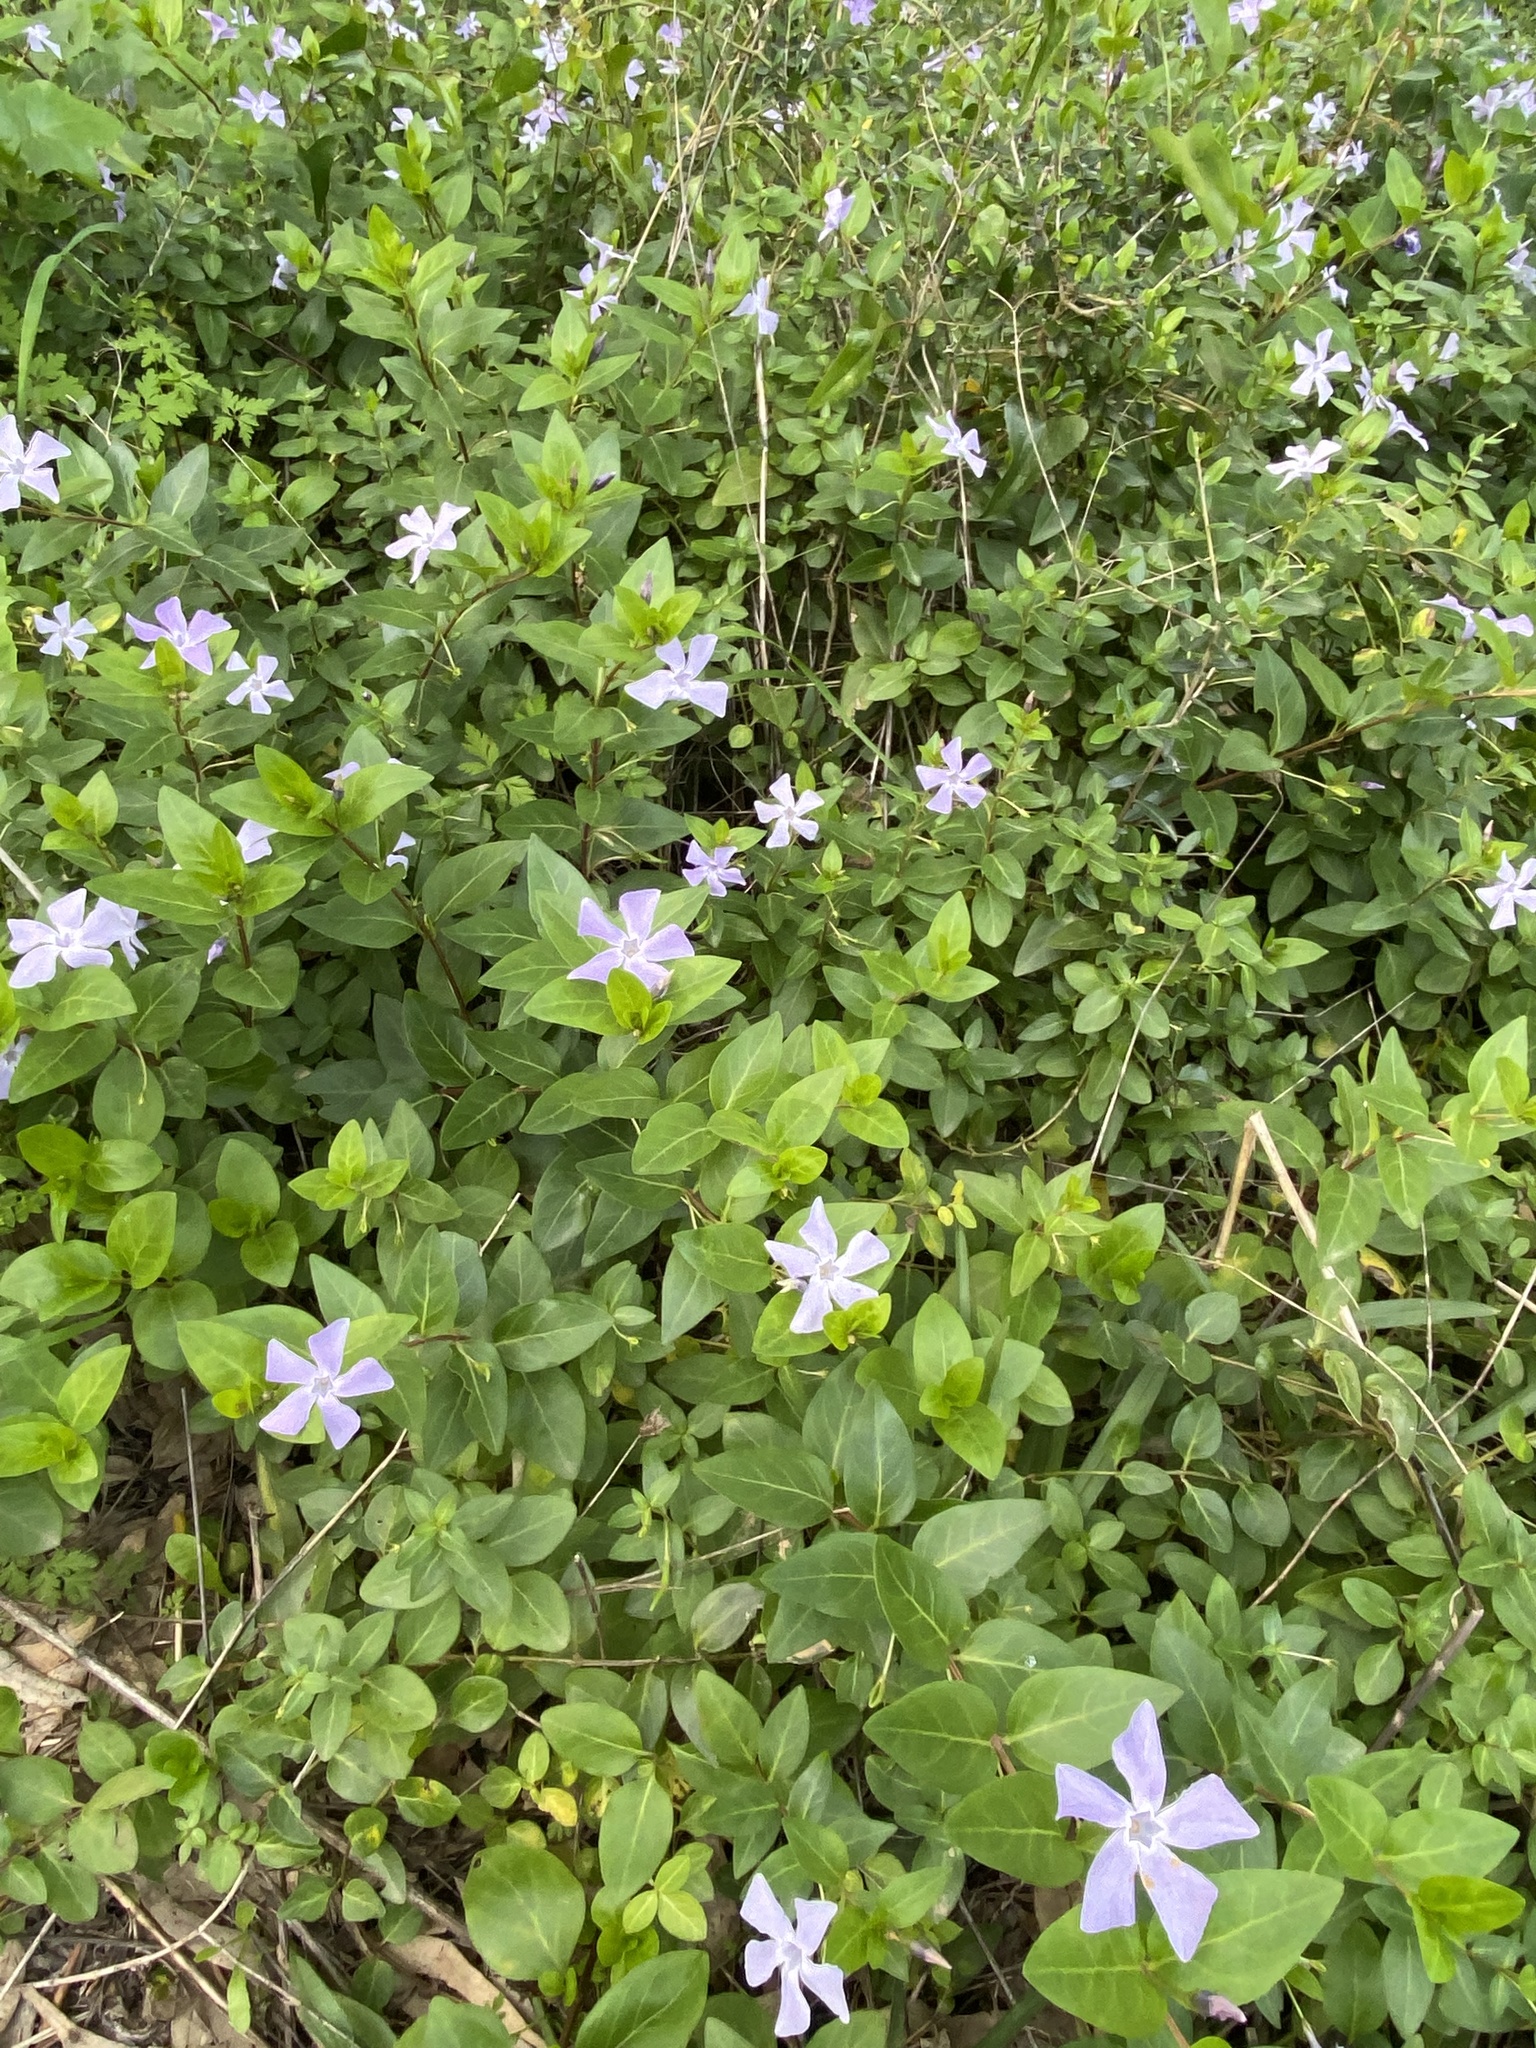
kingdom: Plantae
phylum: Tracheophyta
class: Magnoliopsida
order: Gentianales
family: Apocynaceae
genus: Vinca
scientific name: Vinca difformis
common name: Intermediate periwinkle
